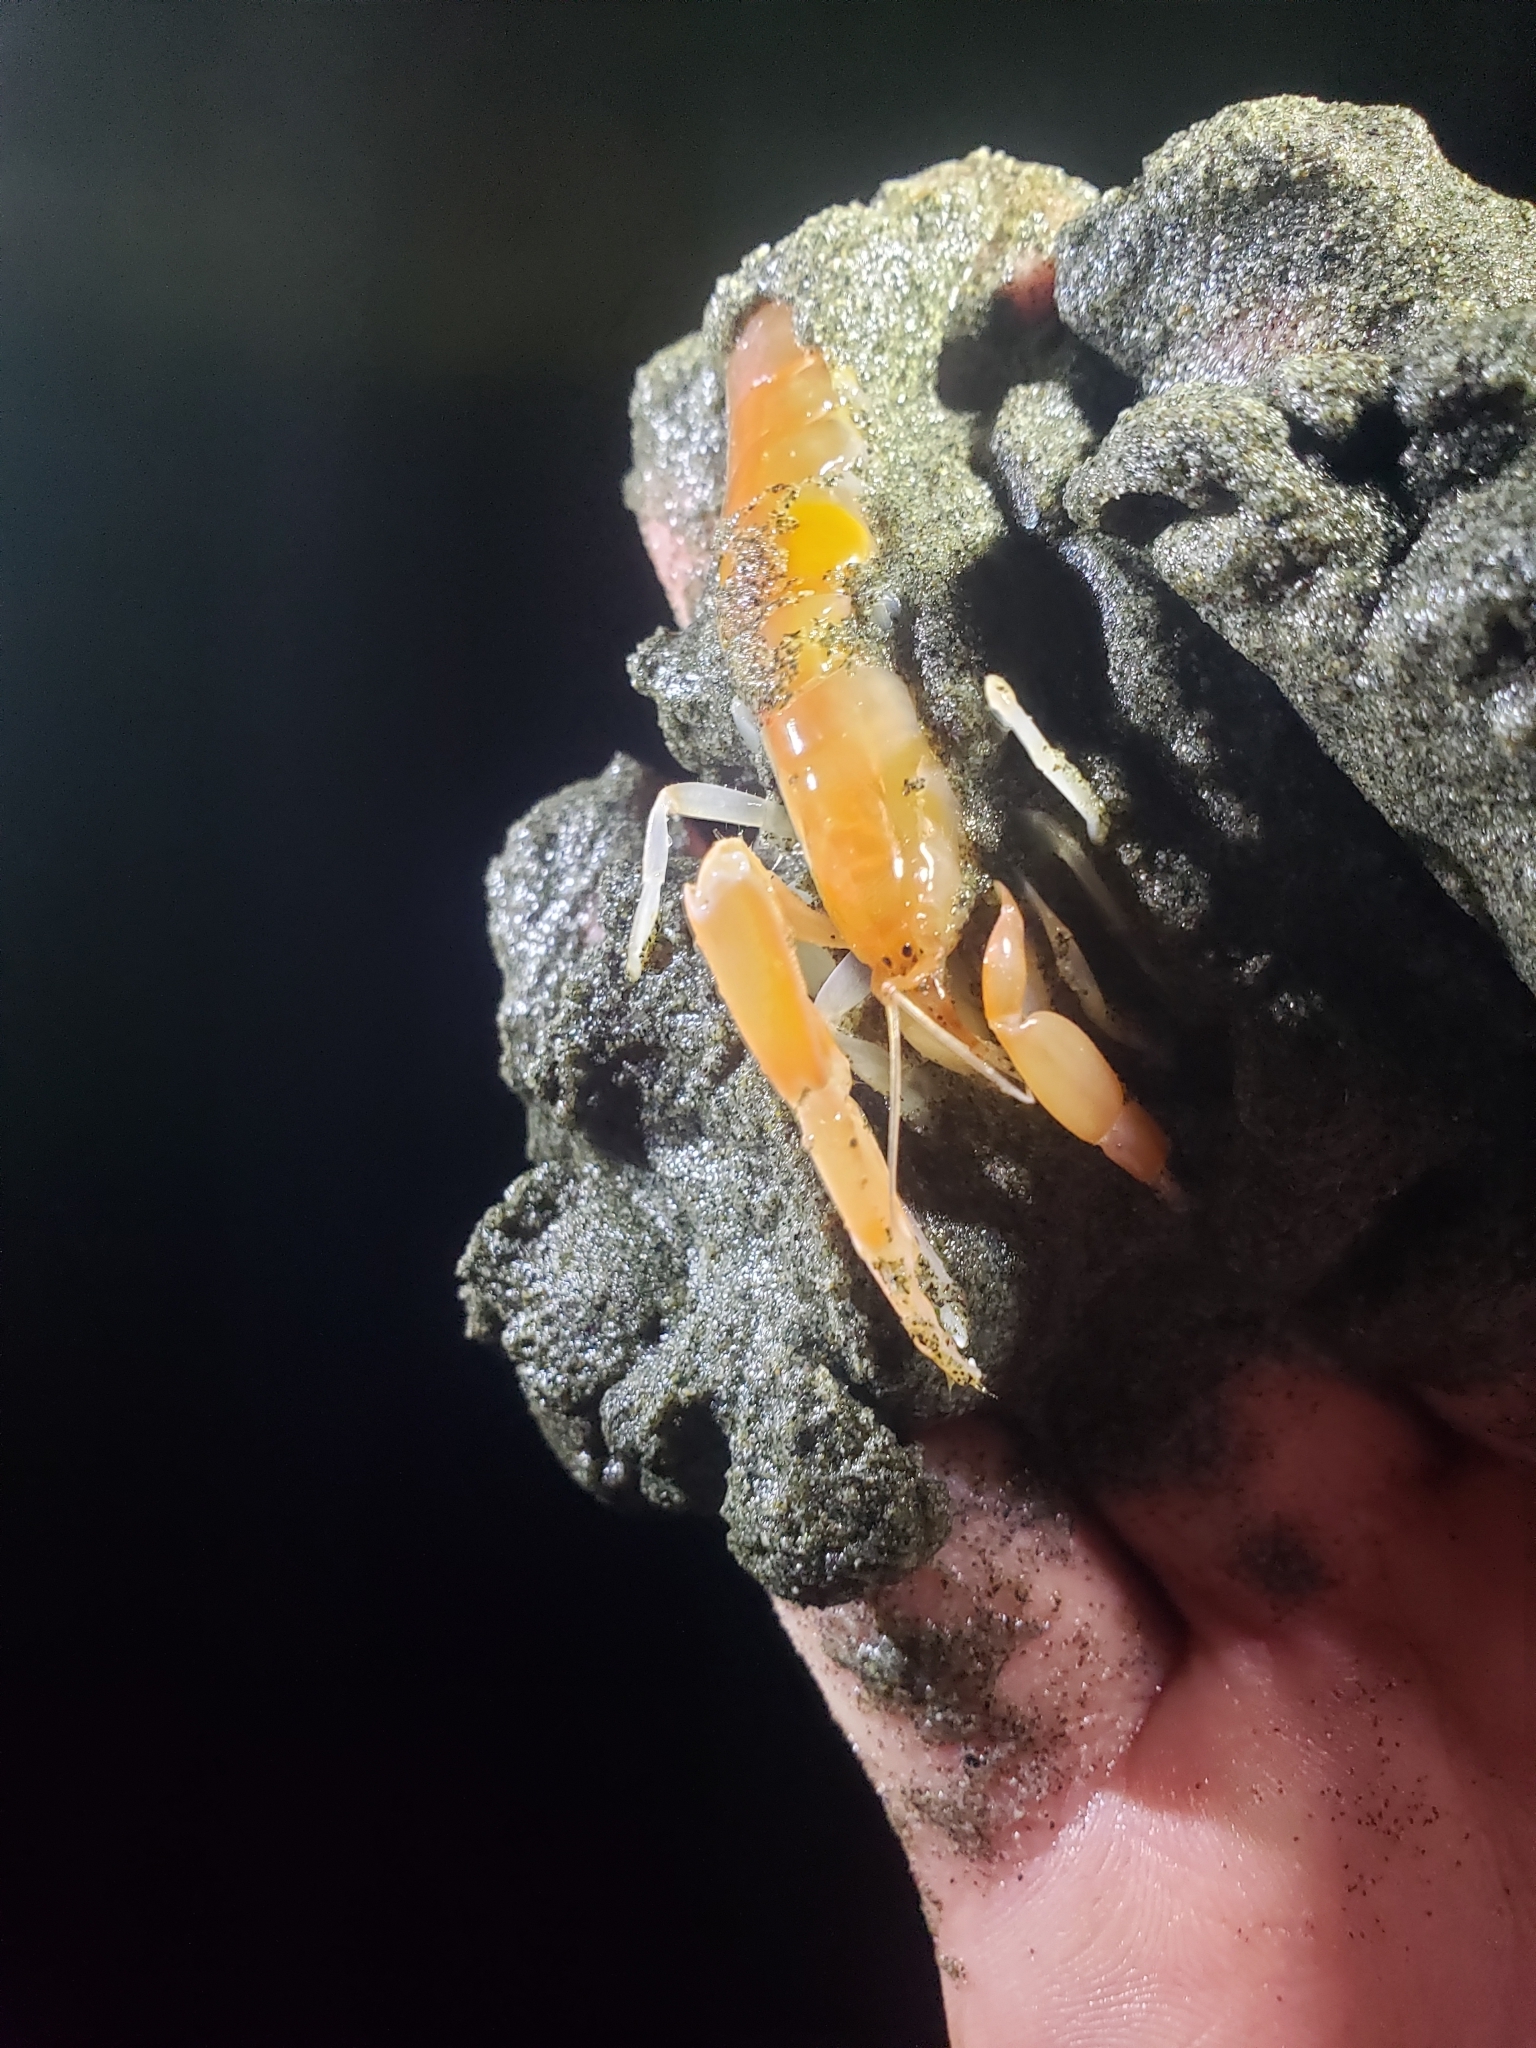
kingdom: Animalia
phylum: Arthropoda
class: Malacostraca
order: Decapoda
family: Callianassidae
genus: Neotrypaea
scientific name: Neotrypaea californiensis
